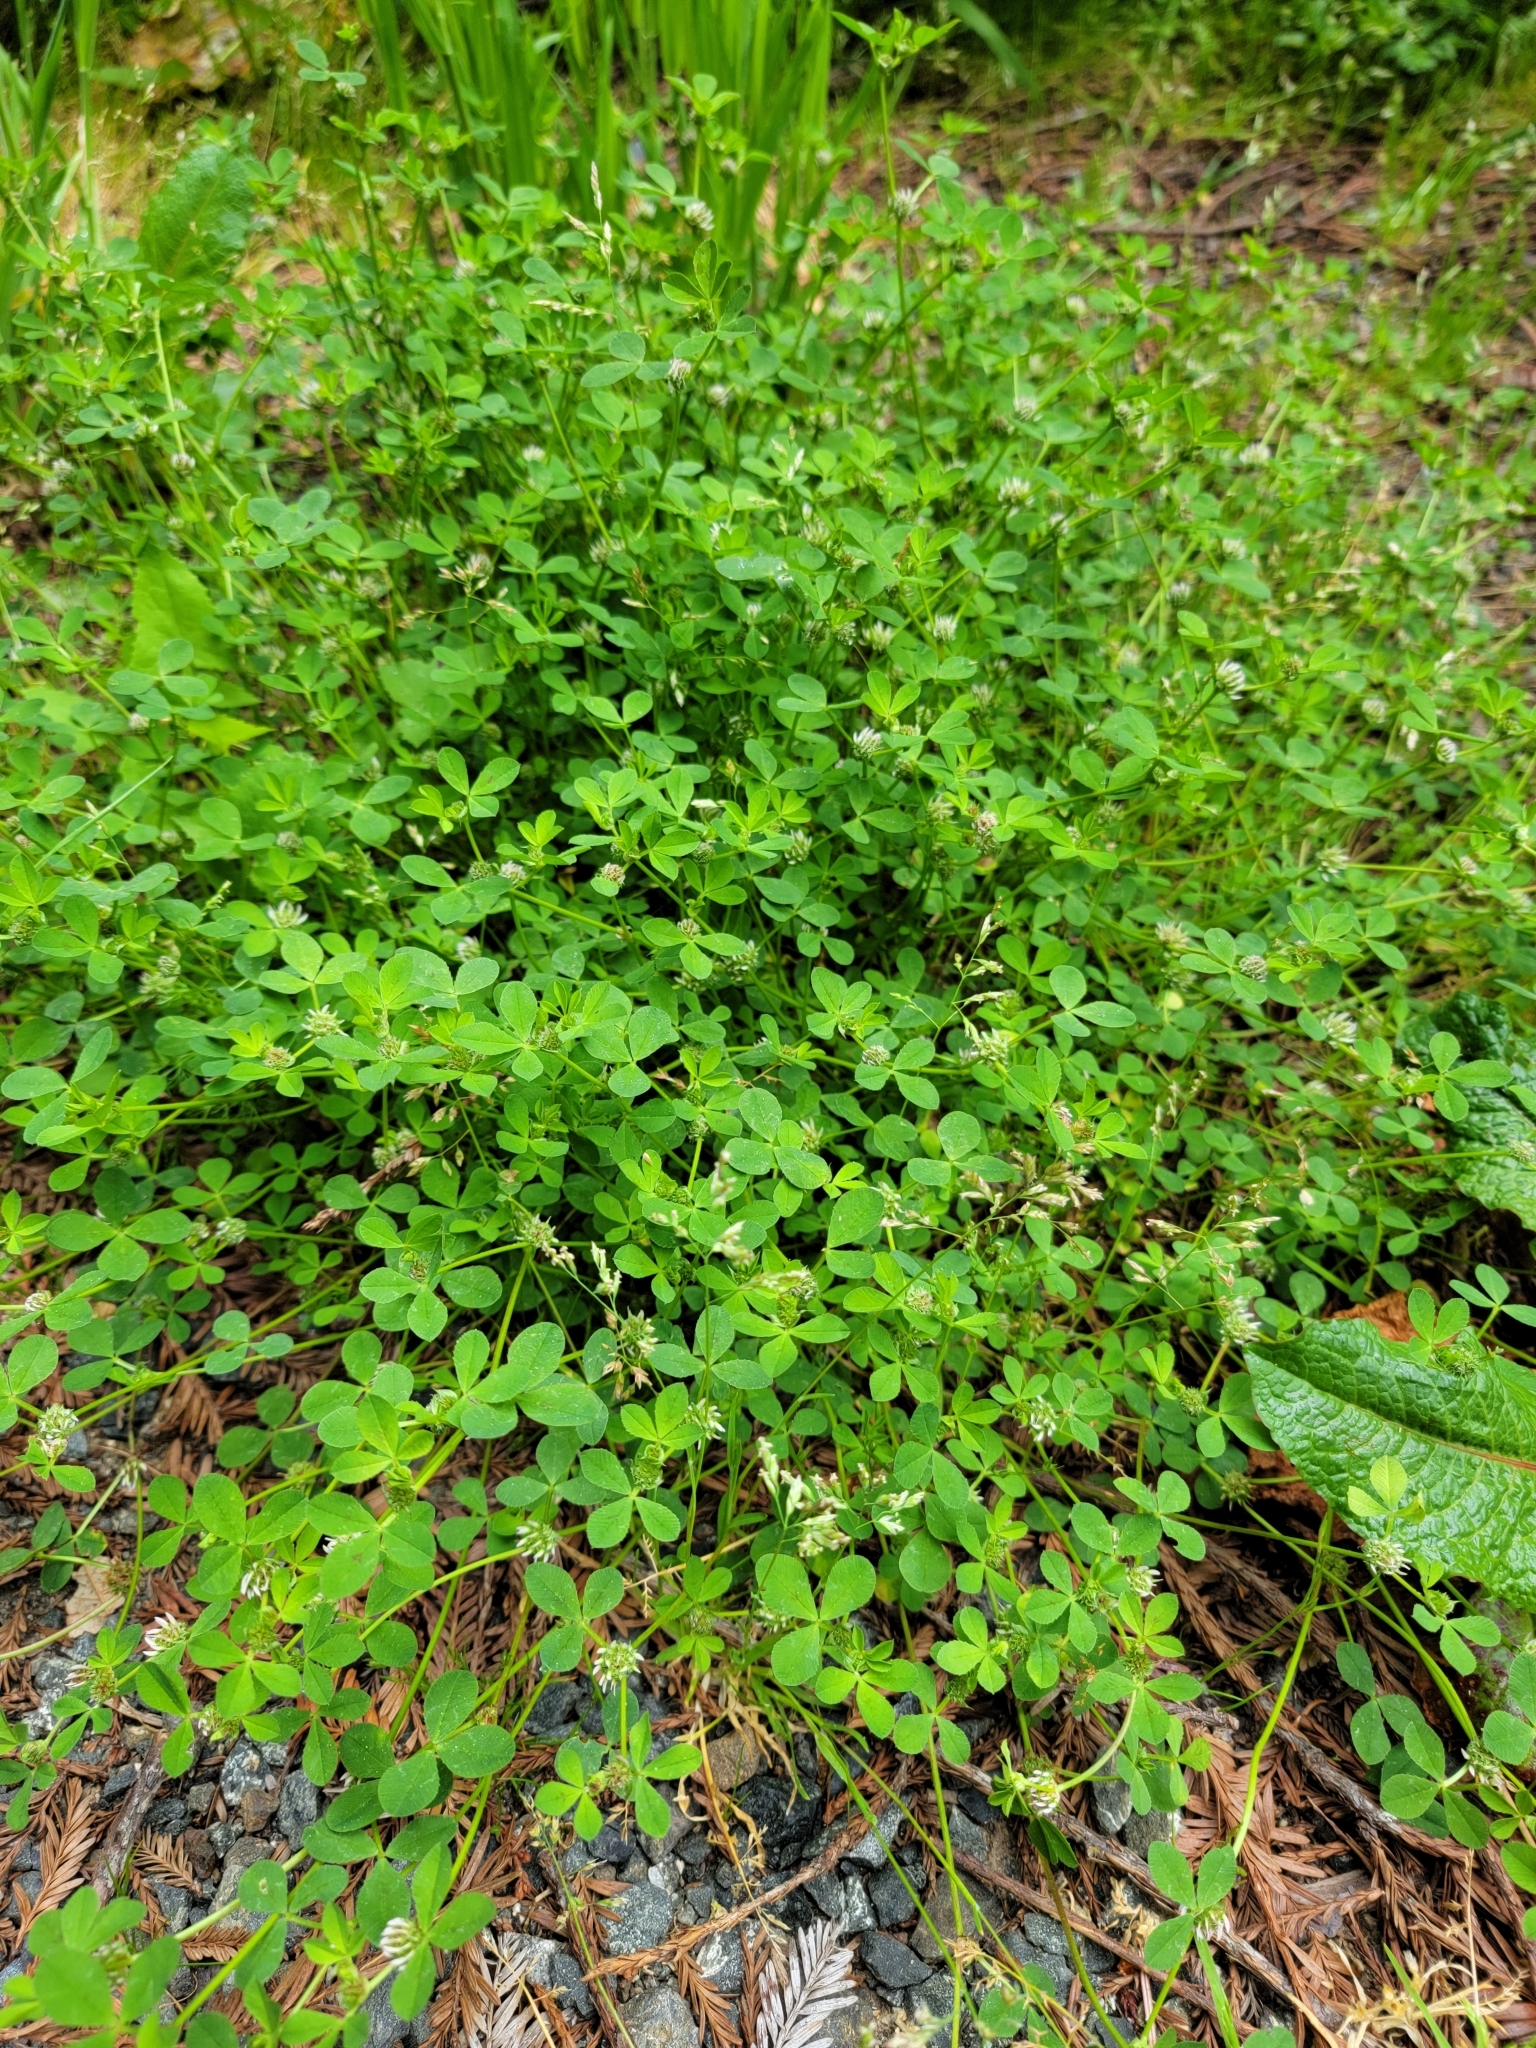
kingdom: Plantae
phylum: Tracheophyta
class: Magnoliopsida
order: Fabales
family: Fabaceae
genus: Trifolium
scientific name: Trifolium glomeratum
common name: Clustered clover
